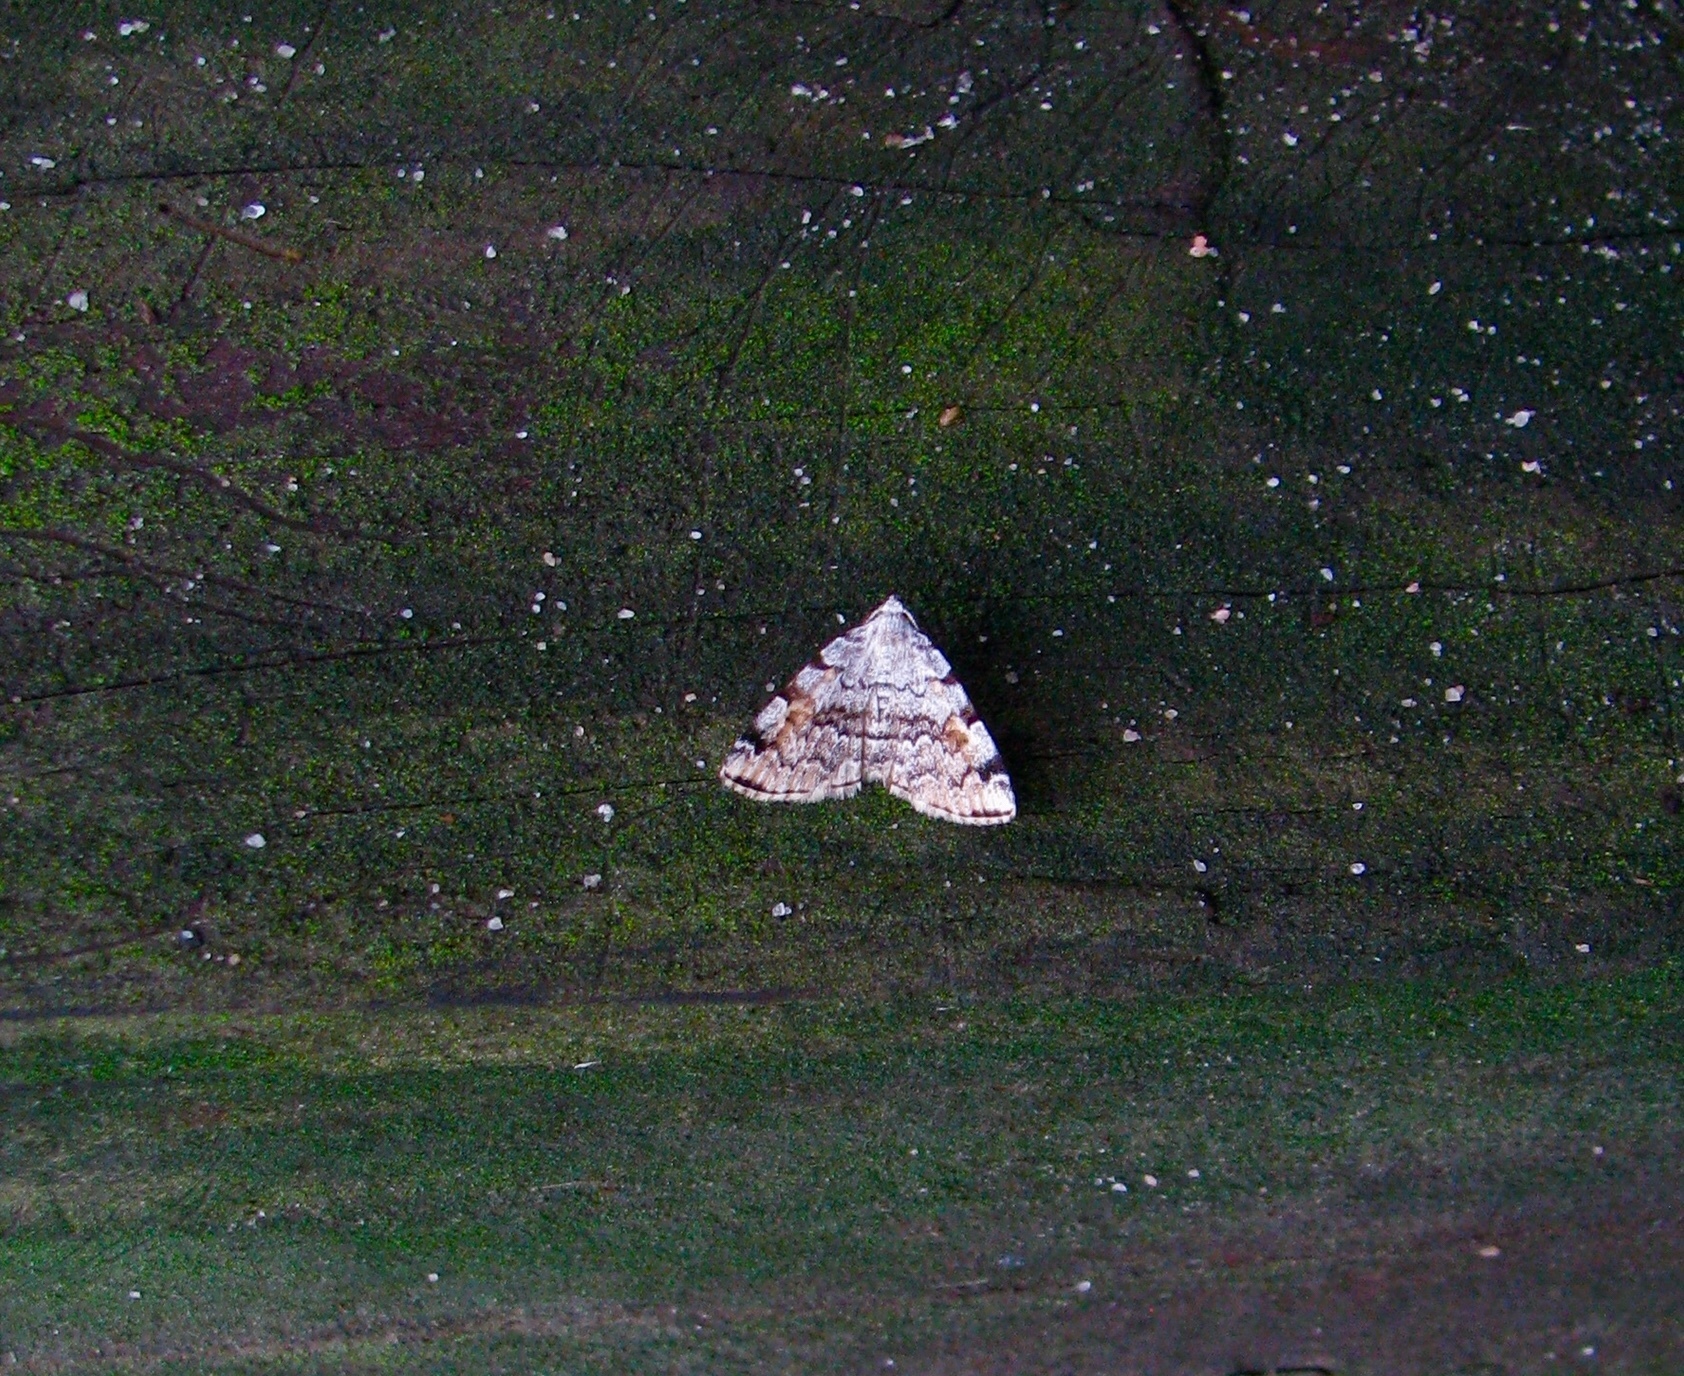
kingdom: Animalia
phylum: Arthropoda
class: Insecta
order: Lepidoptera
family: Erebidae
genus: Idia
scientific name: Idia americalis
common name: American idia moth
